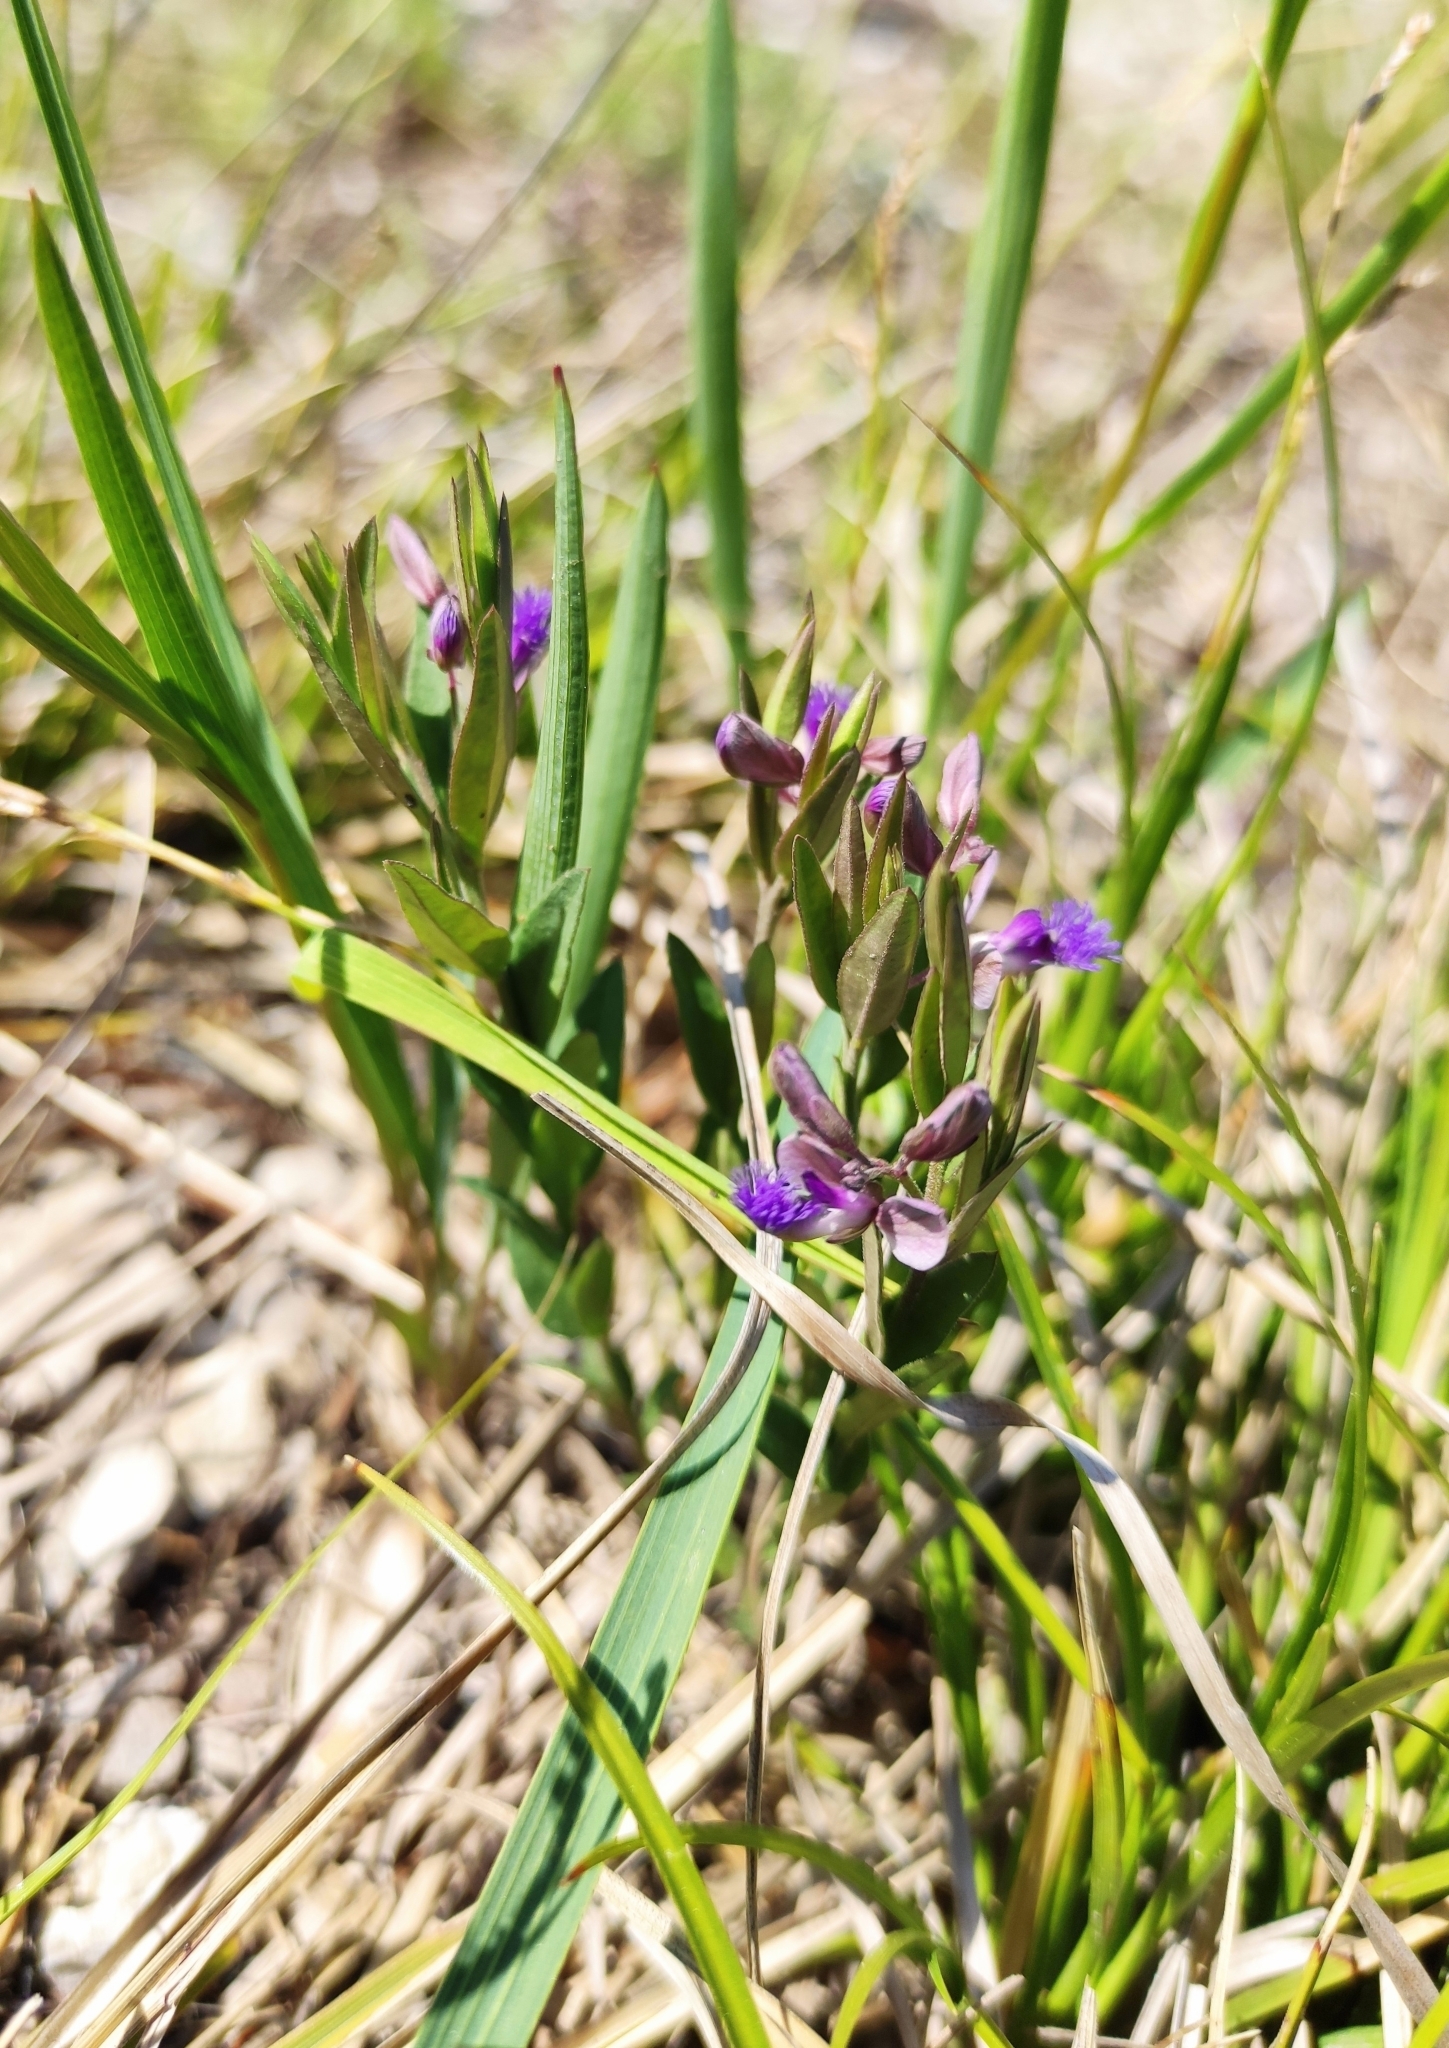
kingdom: Plantae
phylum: Tracheophyta
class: Magnoliopsida
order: Fabales
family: Polygalaceae
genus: Polygala
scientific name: Polygala sibirica
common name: Siberian polygala
